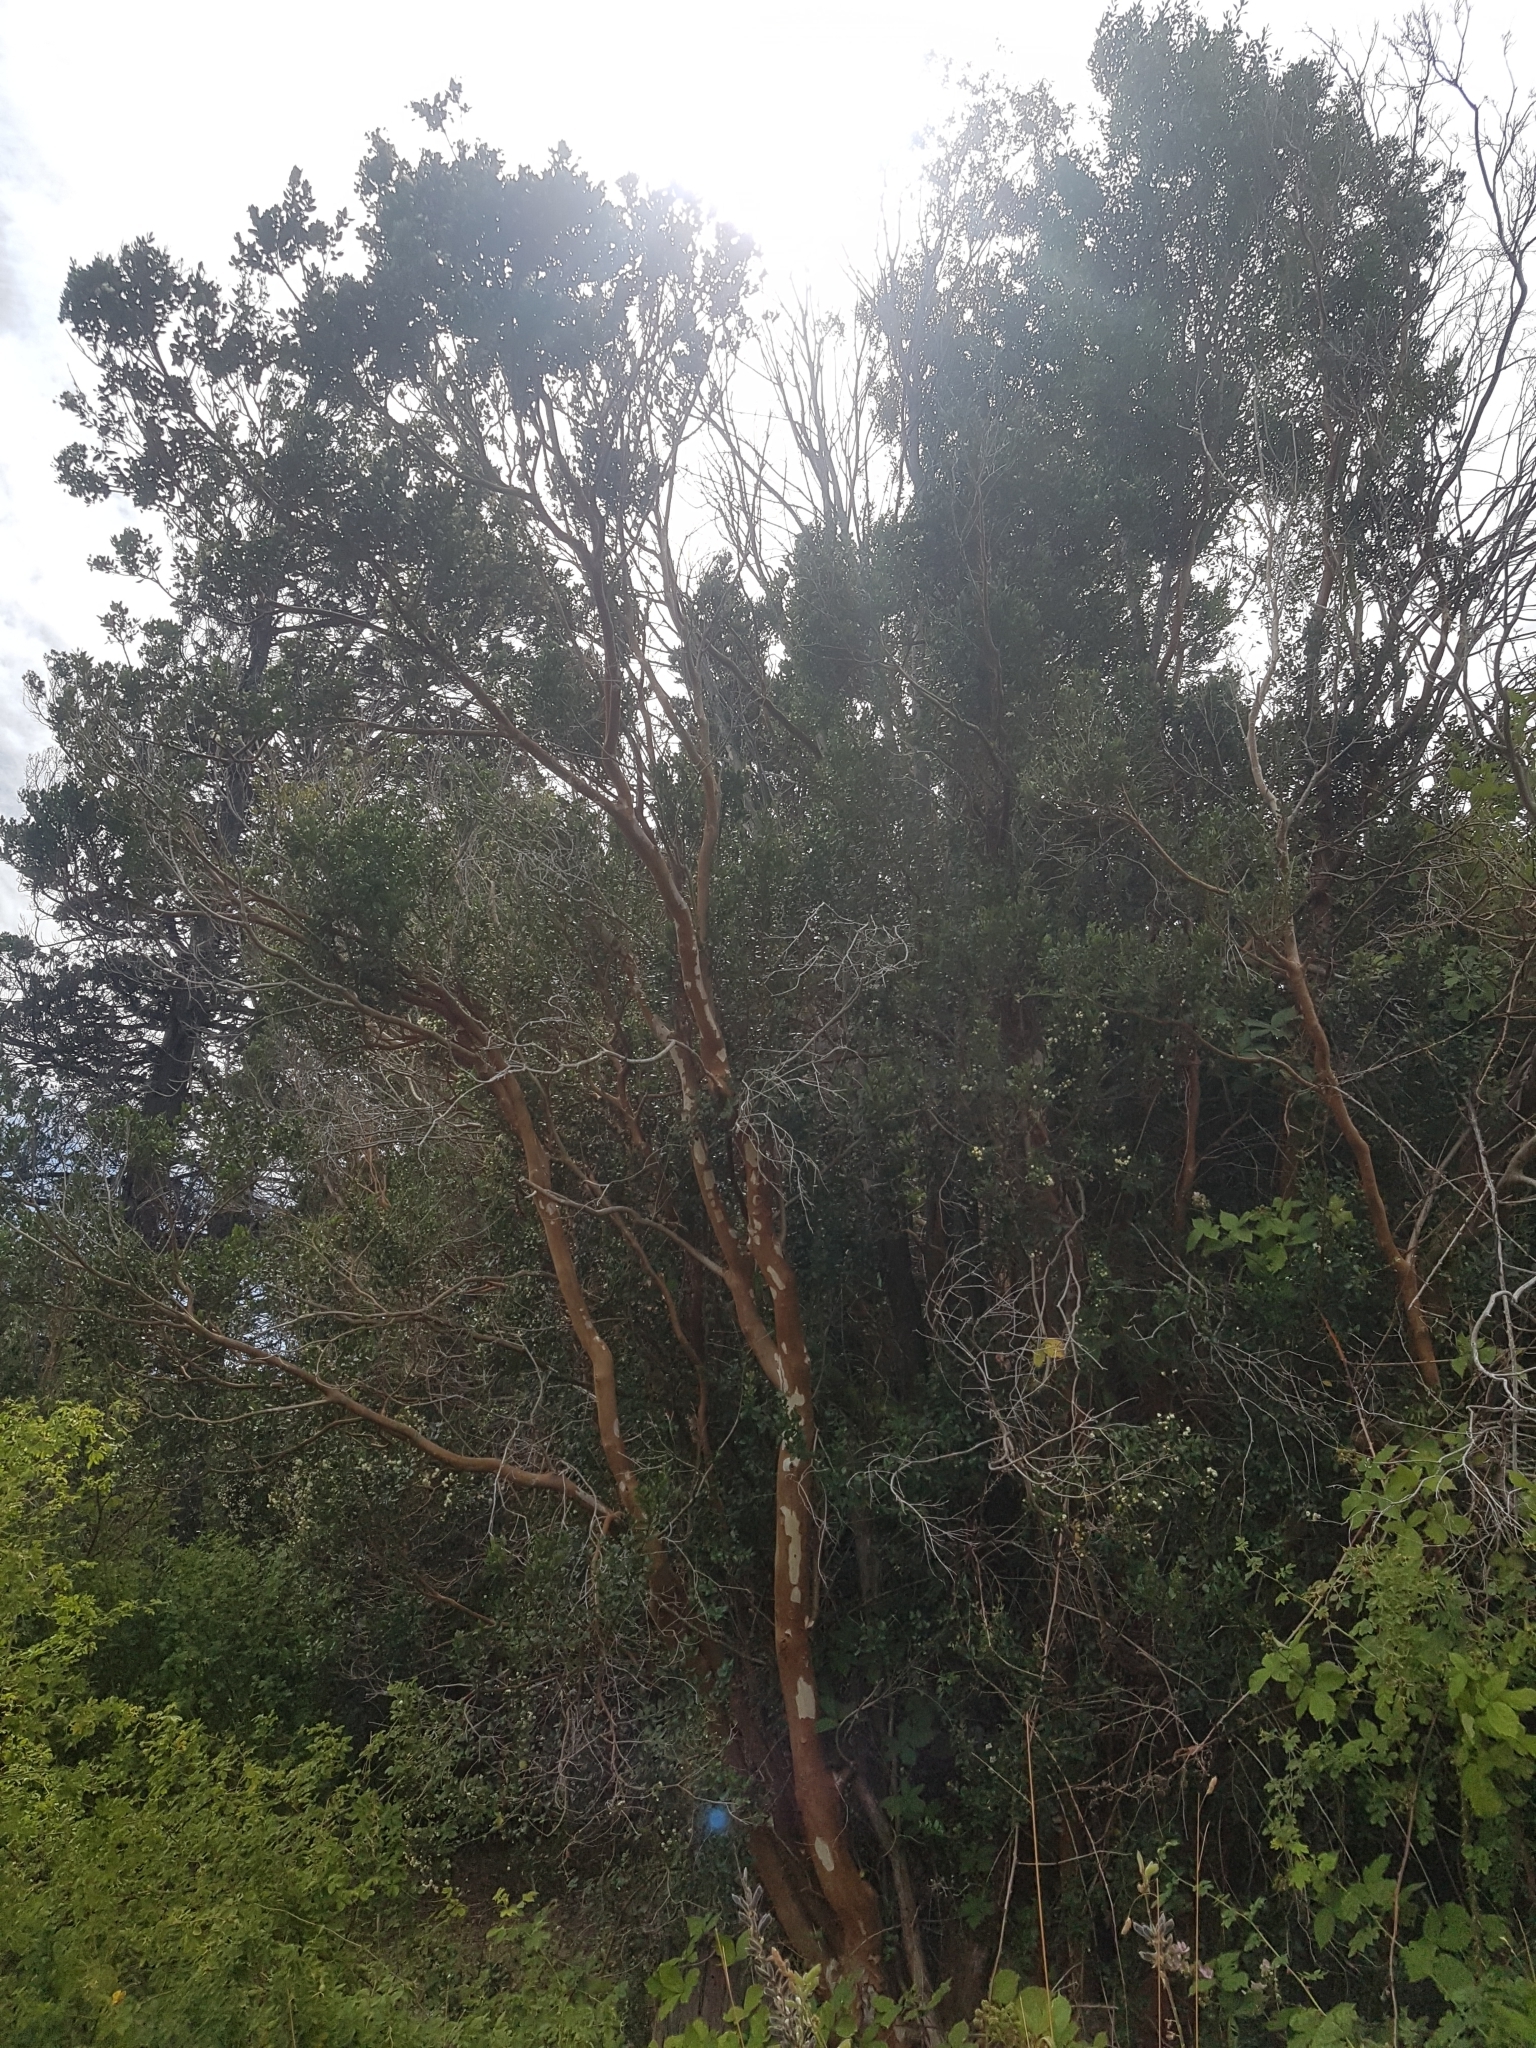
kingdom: Plantae
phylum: Tracheophyta
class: Magnoliopsida
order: Myrtales
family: Myrtaceae
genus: Luma
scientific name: Luma apiculata
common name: Chilean myrtle
